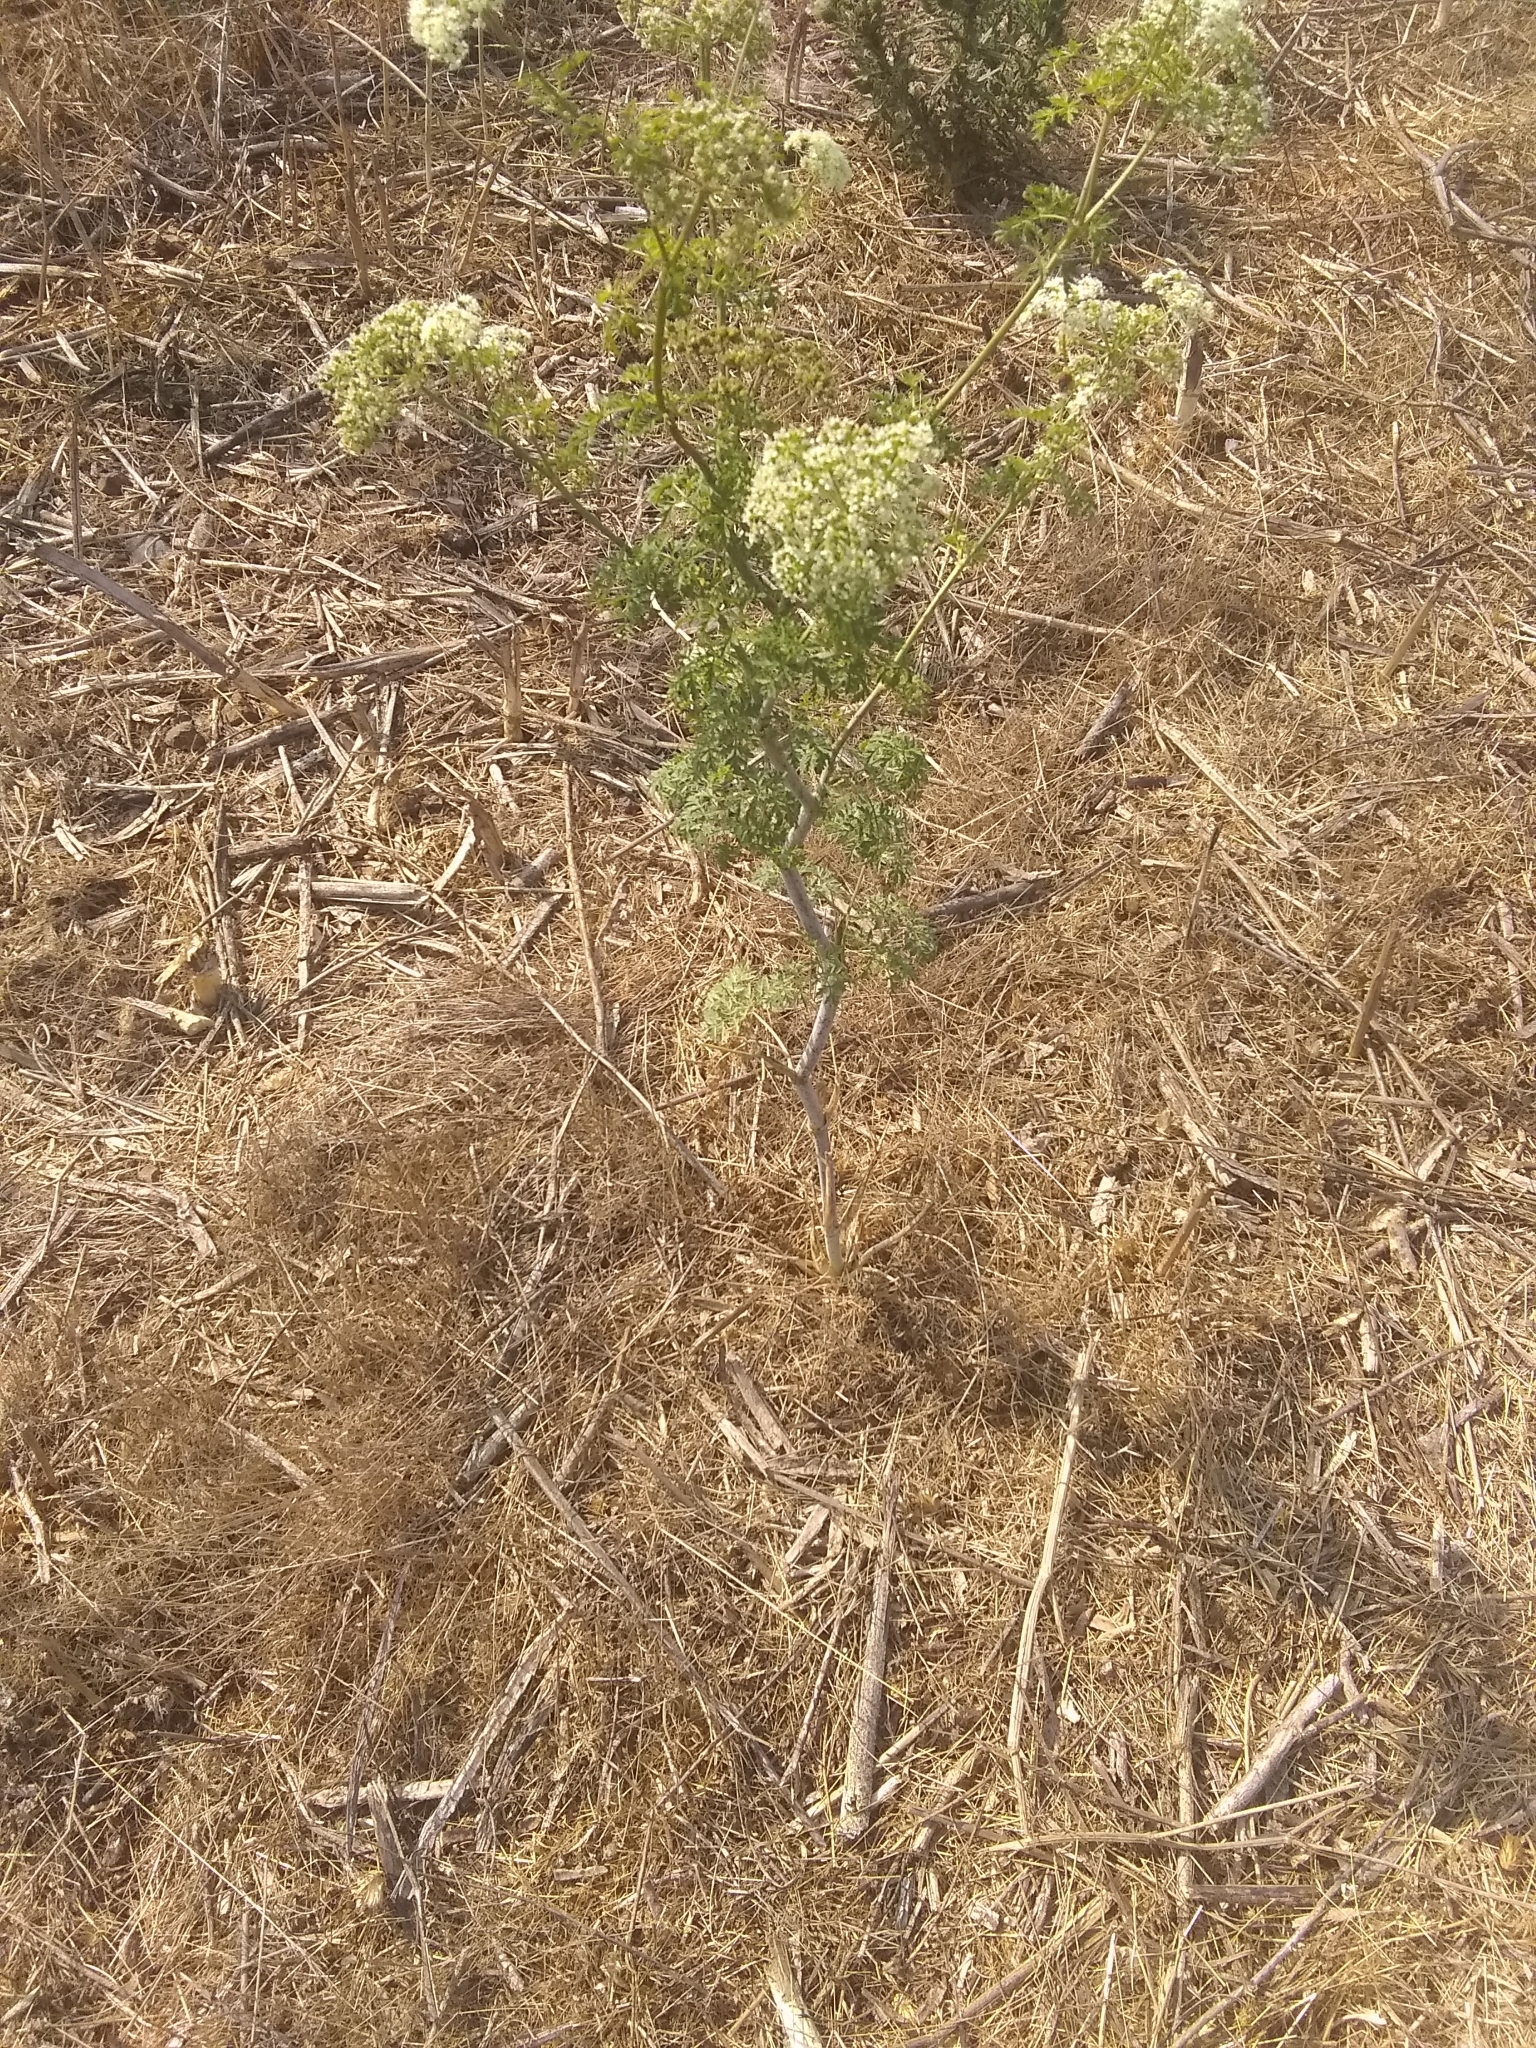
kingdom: Plantae
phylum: Tracheophyta
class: Magnoliopsida
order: Apiales
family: Apiaceae
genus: Conium
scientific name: Conium maculatum
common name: Hemlock
